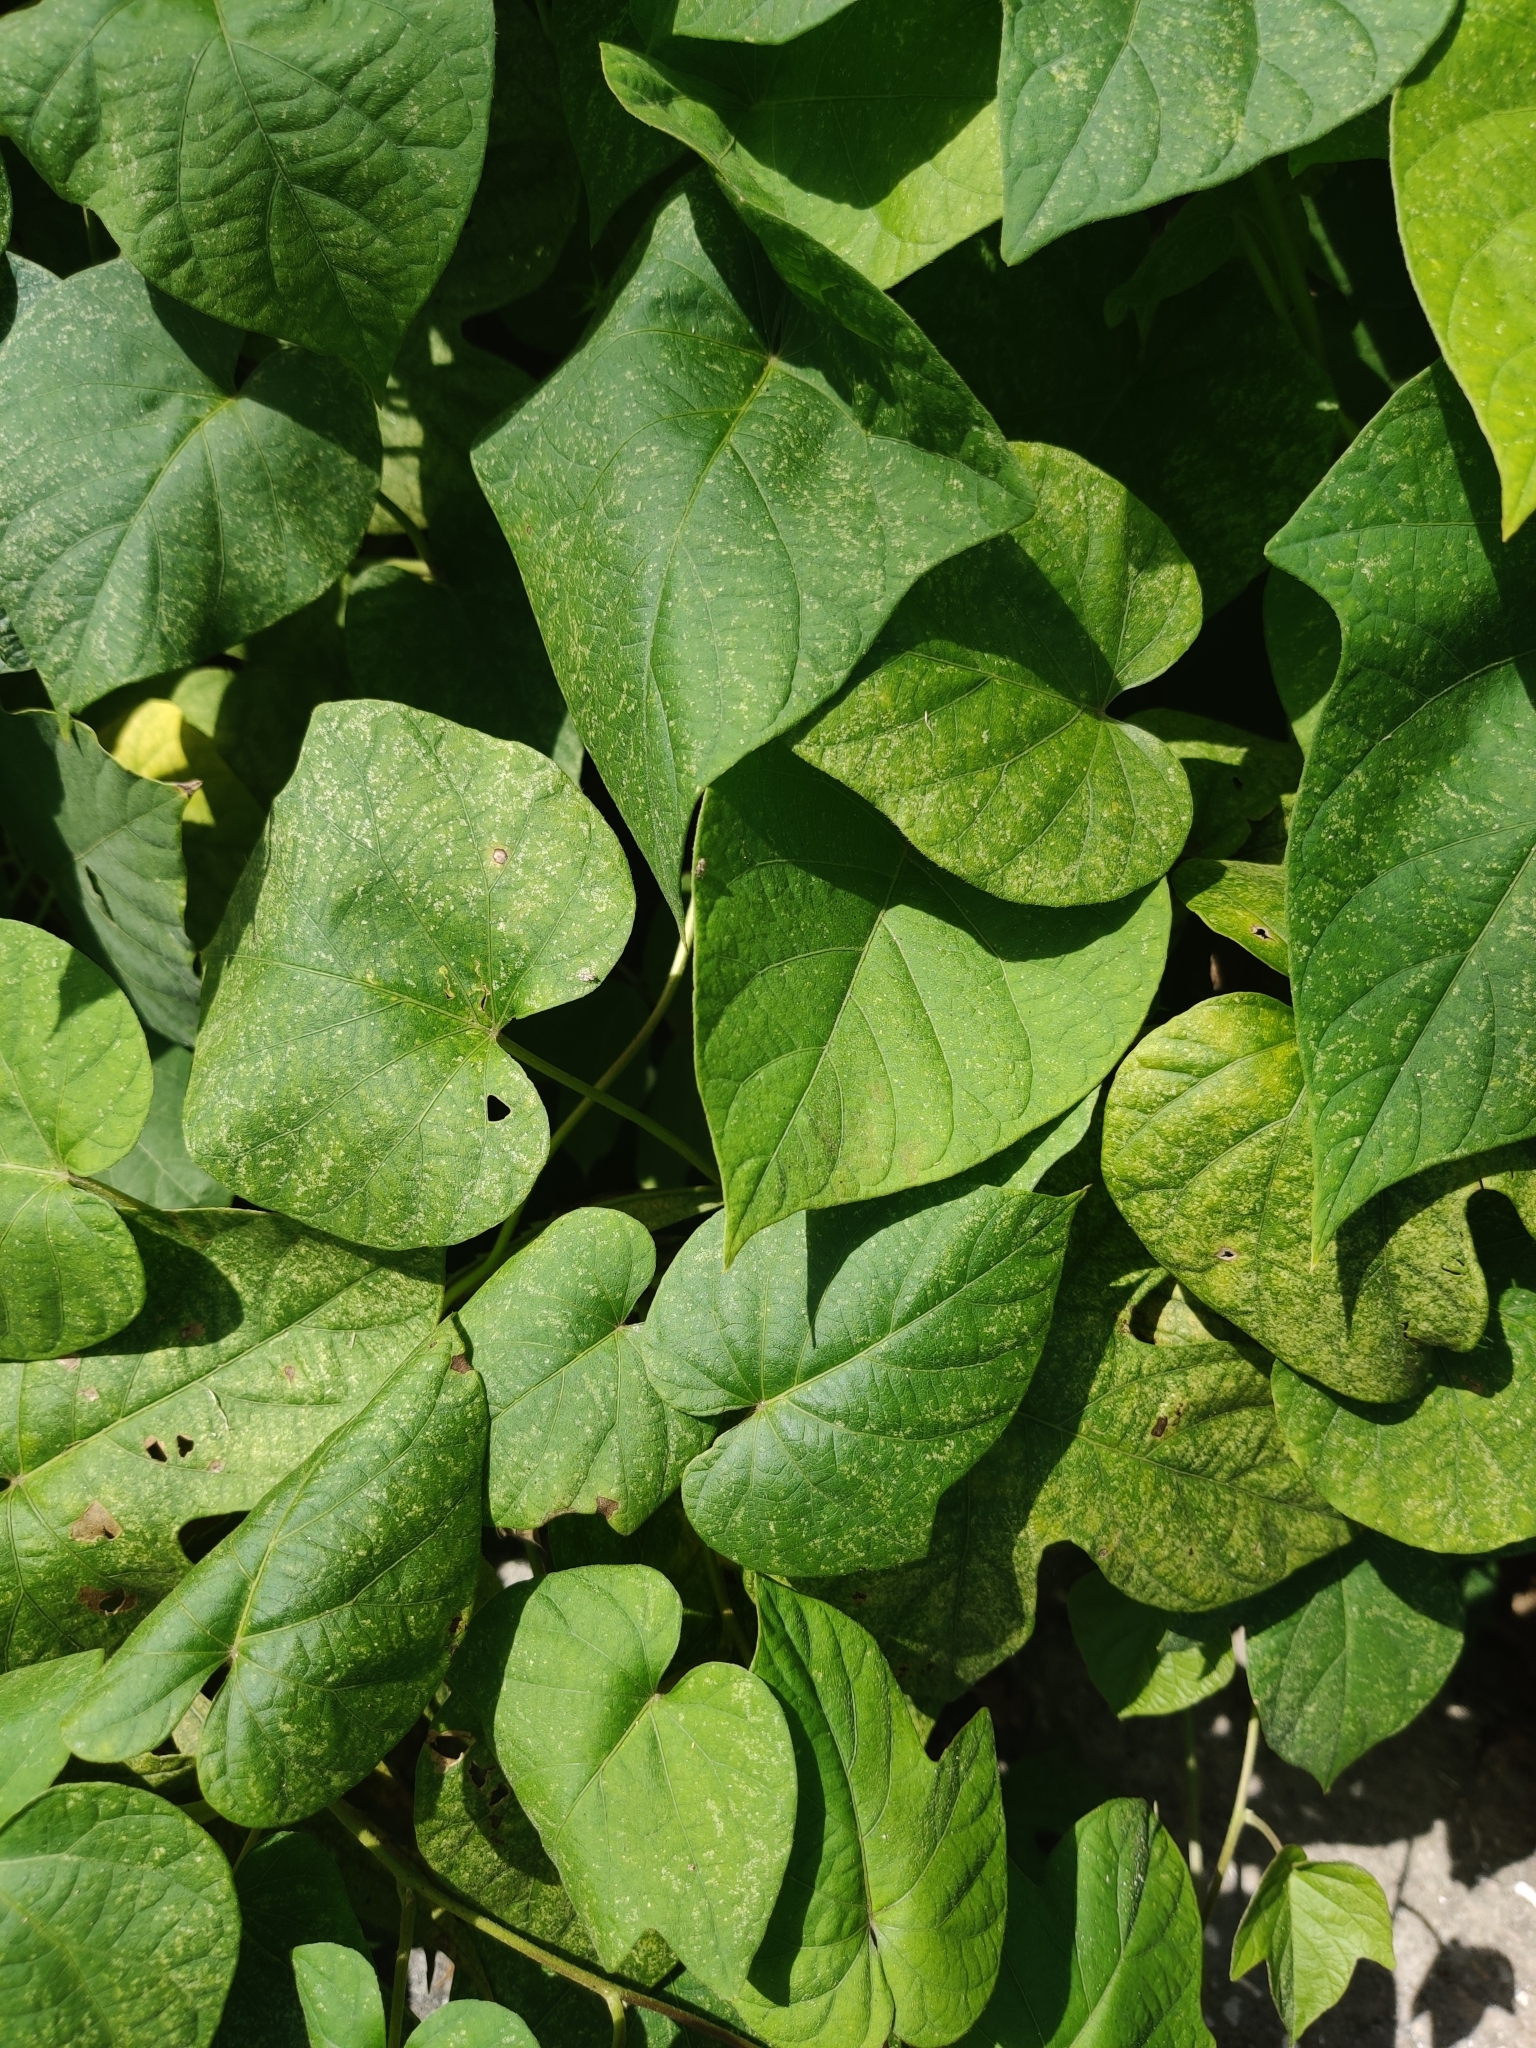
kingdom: Plantae
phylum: Tracheophyta
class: Magnoliopsida
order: Solanales
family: Convolvulaceae
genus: Ipomoea
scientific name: Ipomoea indica
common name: Blue dawnflower
